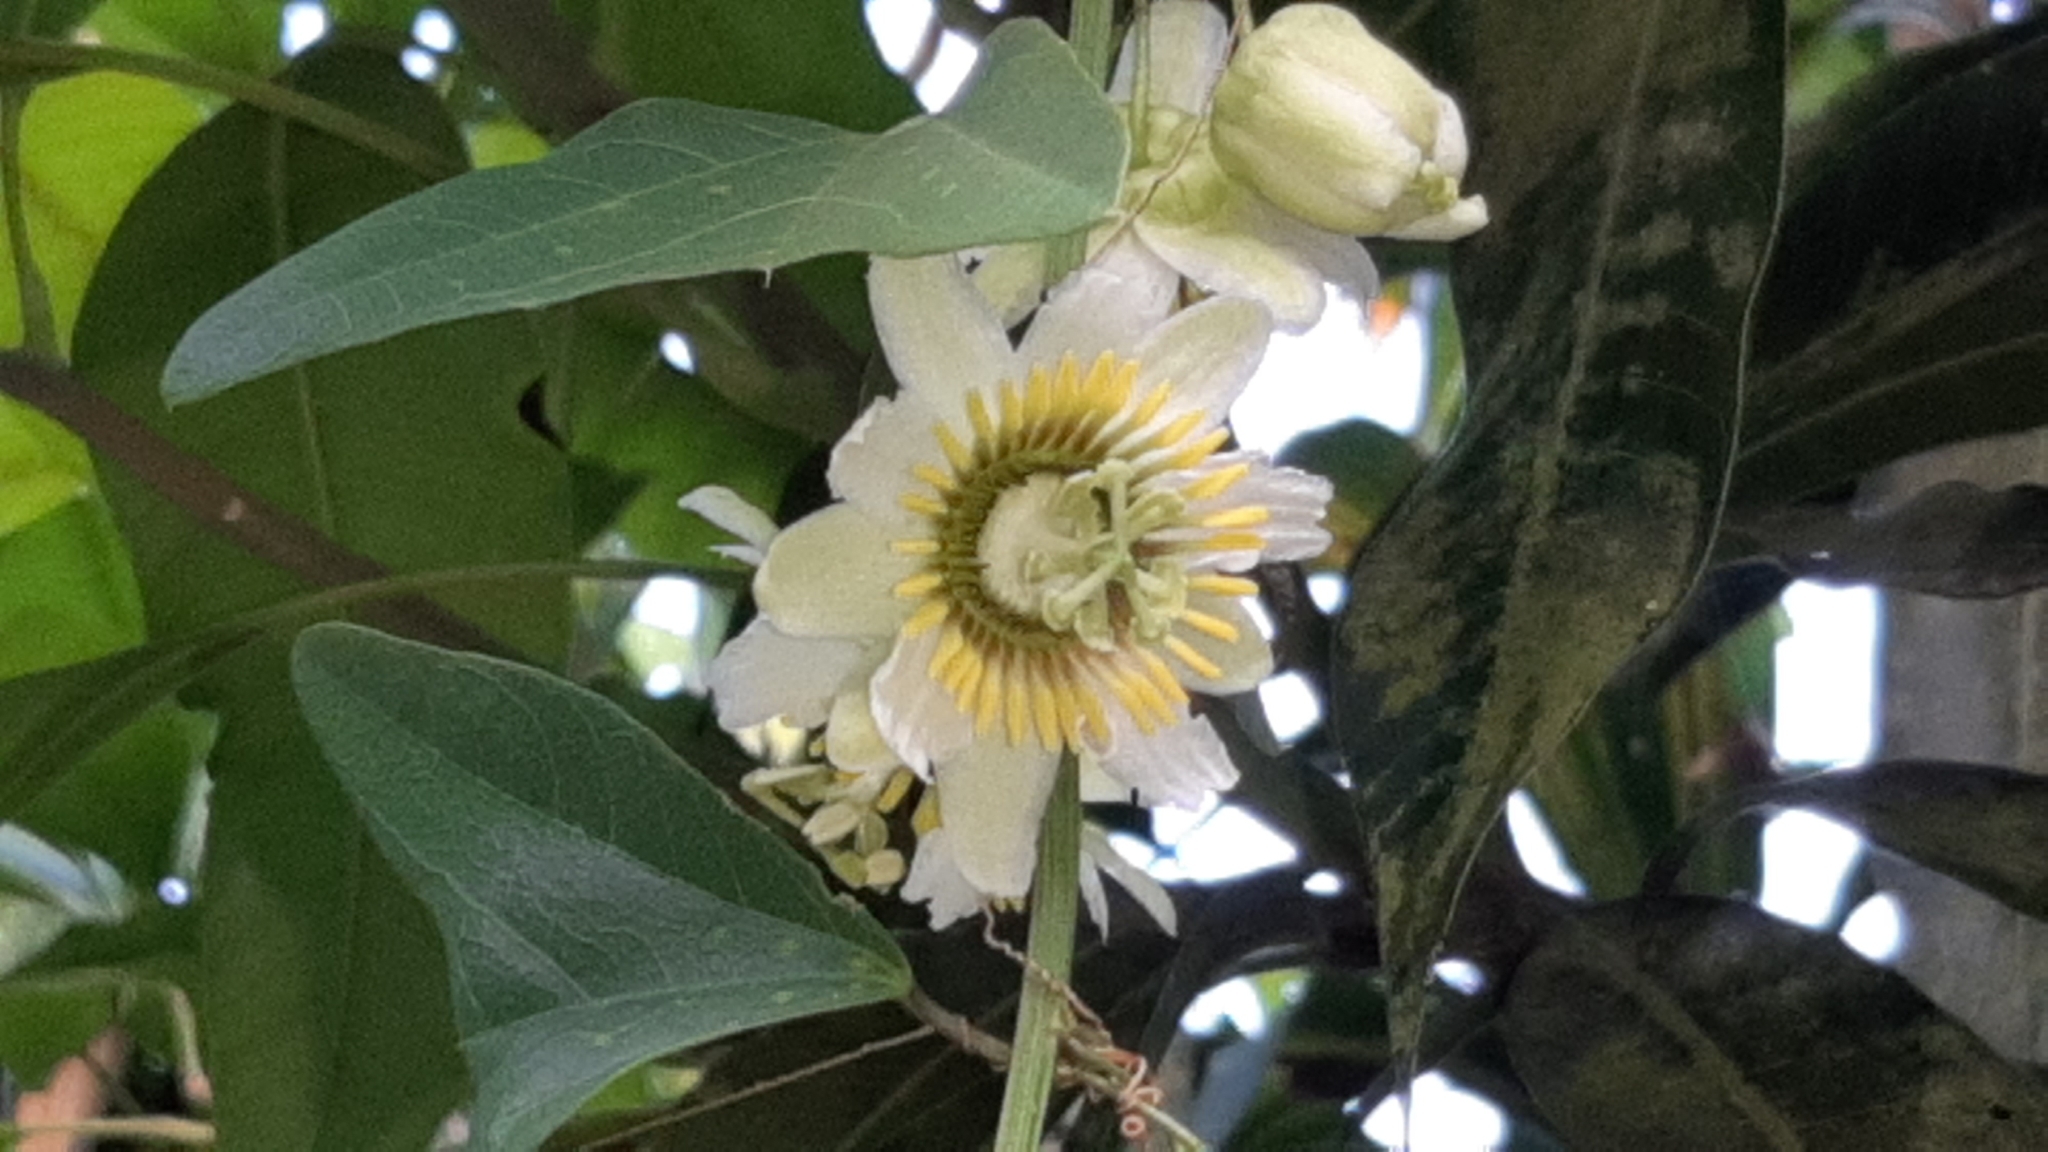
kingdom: Plantae
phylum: Tracheophyta
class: Magnoliopsida
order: Malpighiales
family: Passifloraceae
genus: Passiflora
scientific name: Passiflora biflora
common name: Twoflower passionflower
